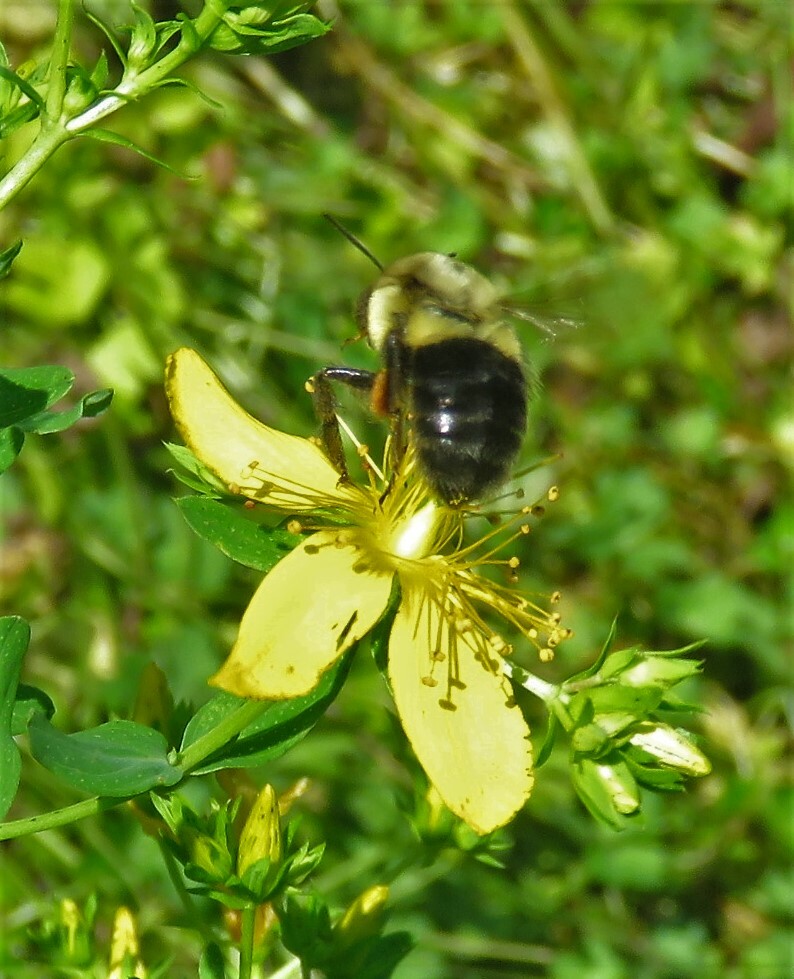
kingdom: Animalia
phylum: Arthropoda
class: Insecta
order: Hymenoptera
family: Apidae
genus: Bombus
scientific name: Bombus impatiens
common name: Common eastern bumble bee
